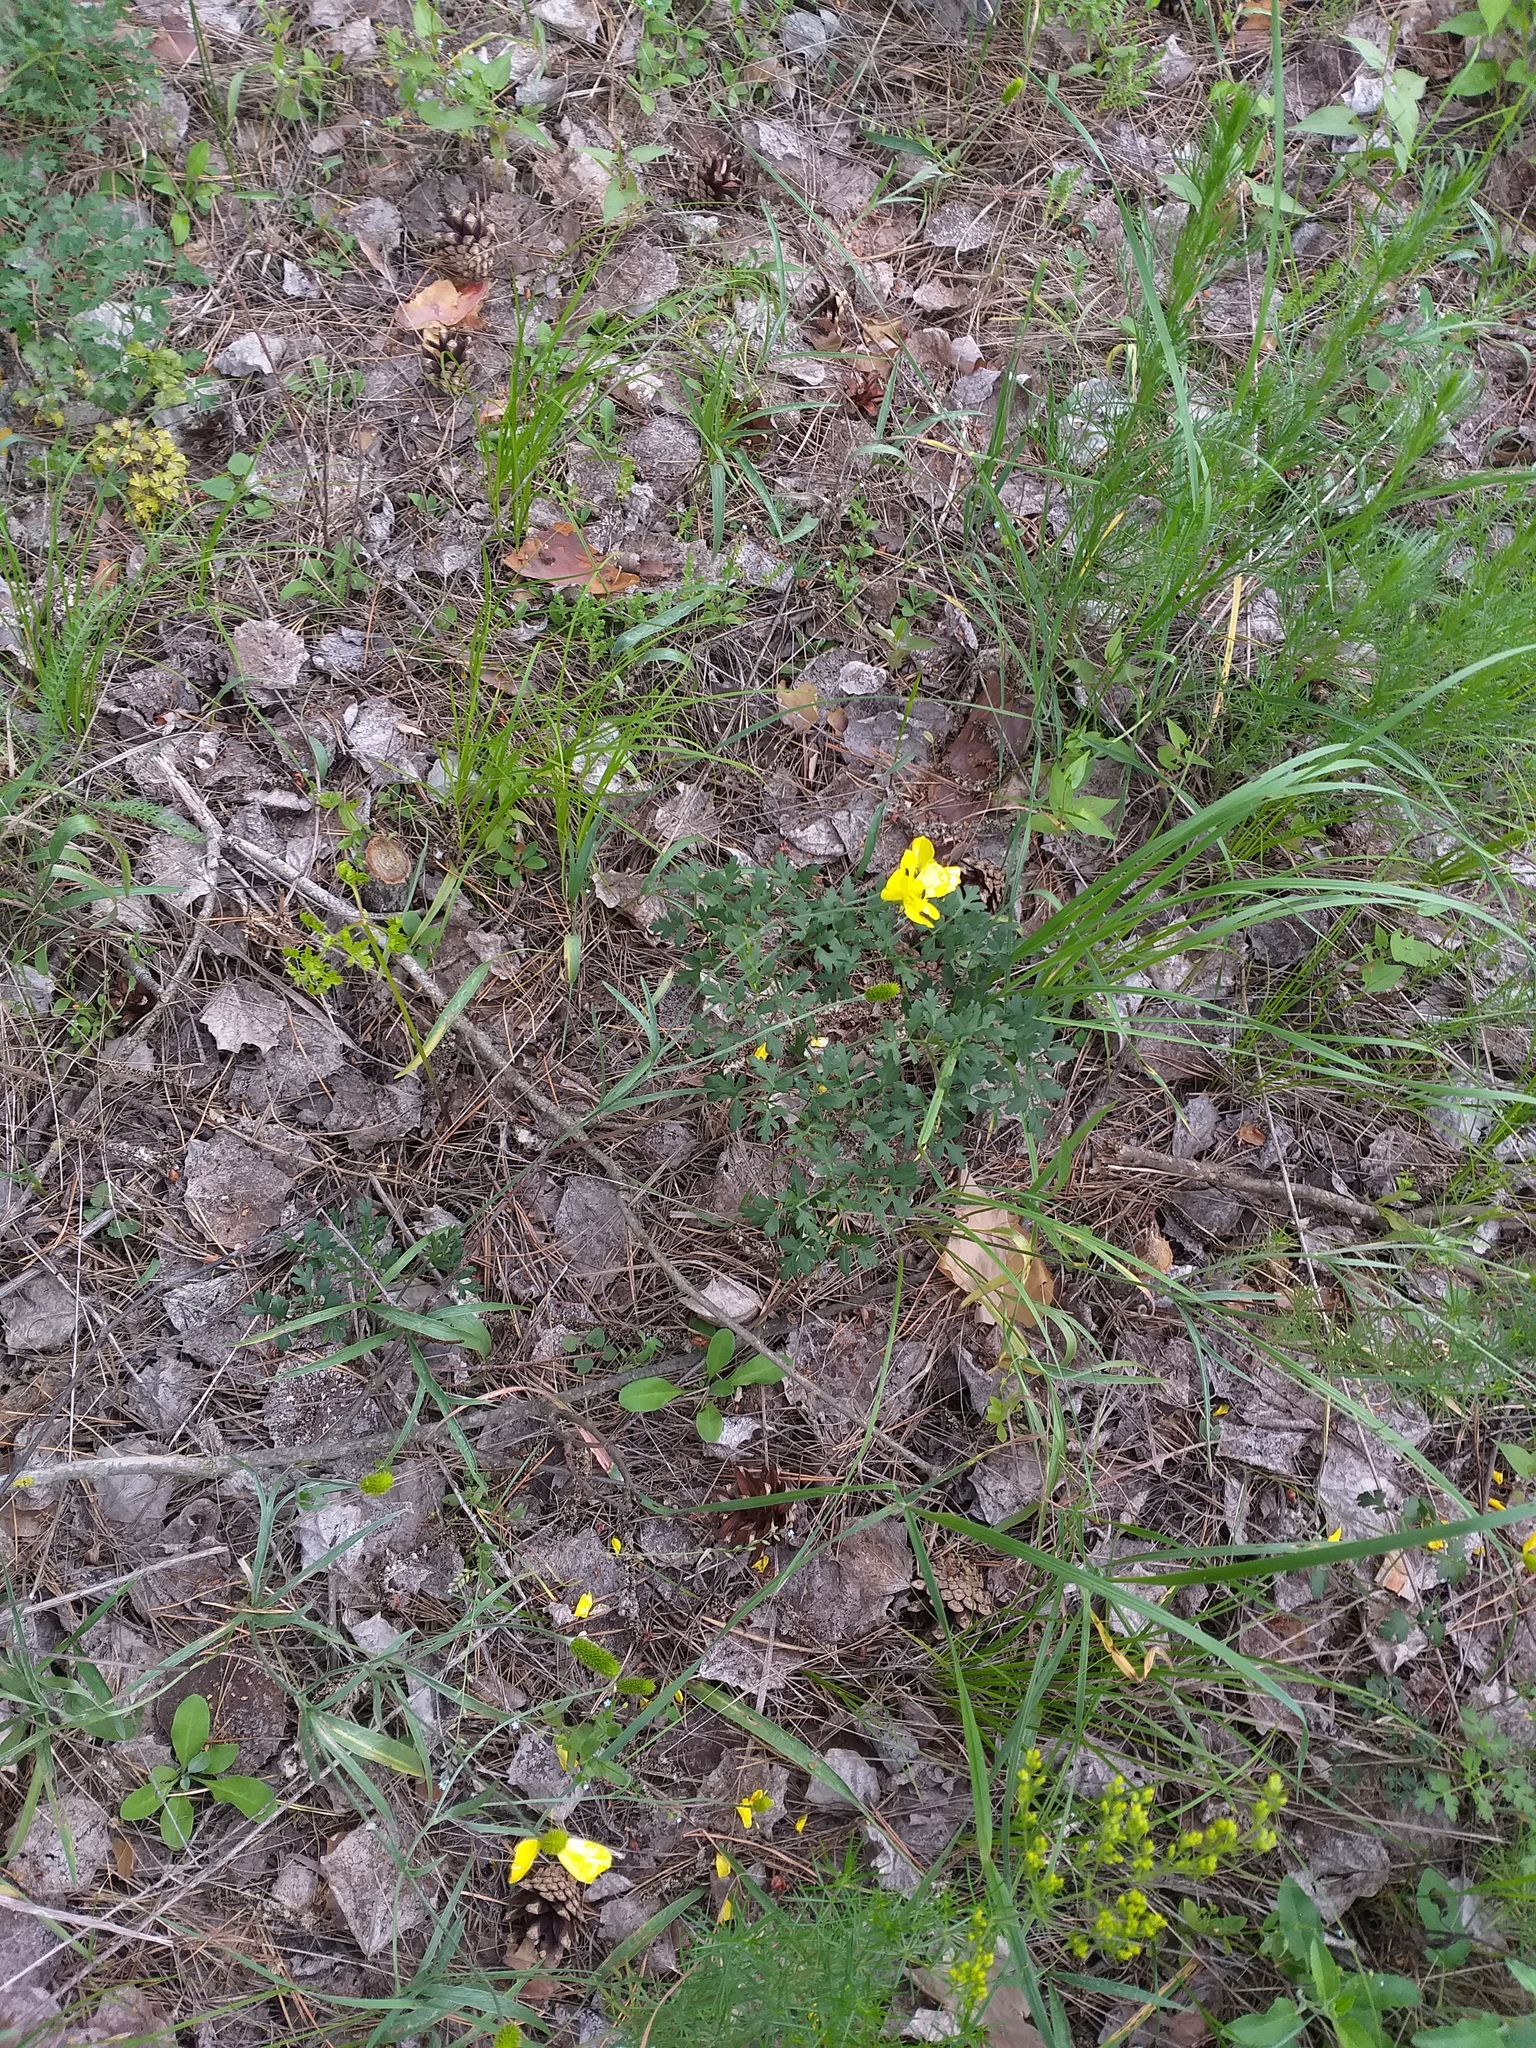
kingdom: Plantae
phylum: Tracheophyta
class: Magnoliopsida
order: Ranunculales
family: Ranunculaceae
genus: Ranunculus
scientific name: Ranunculus illyricus
